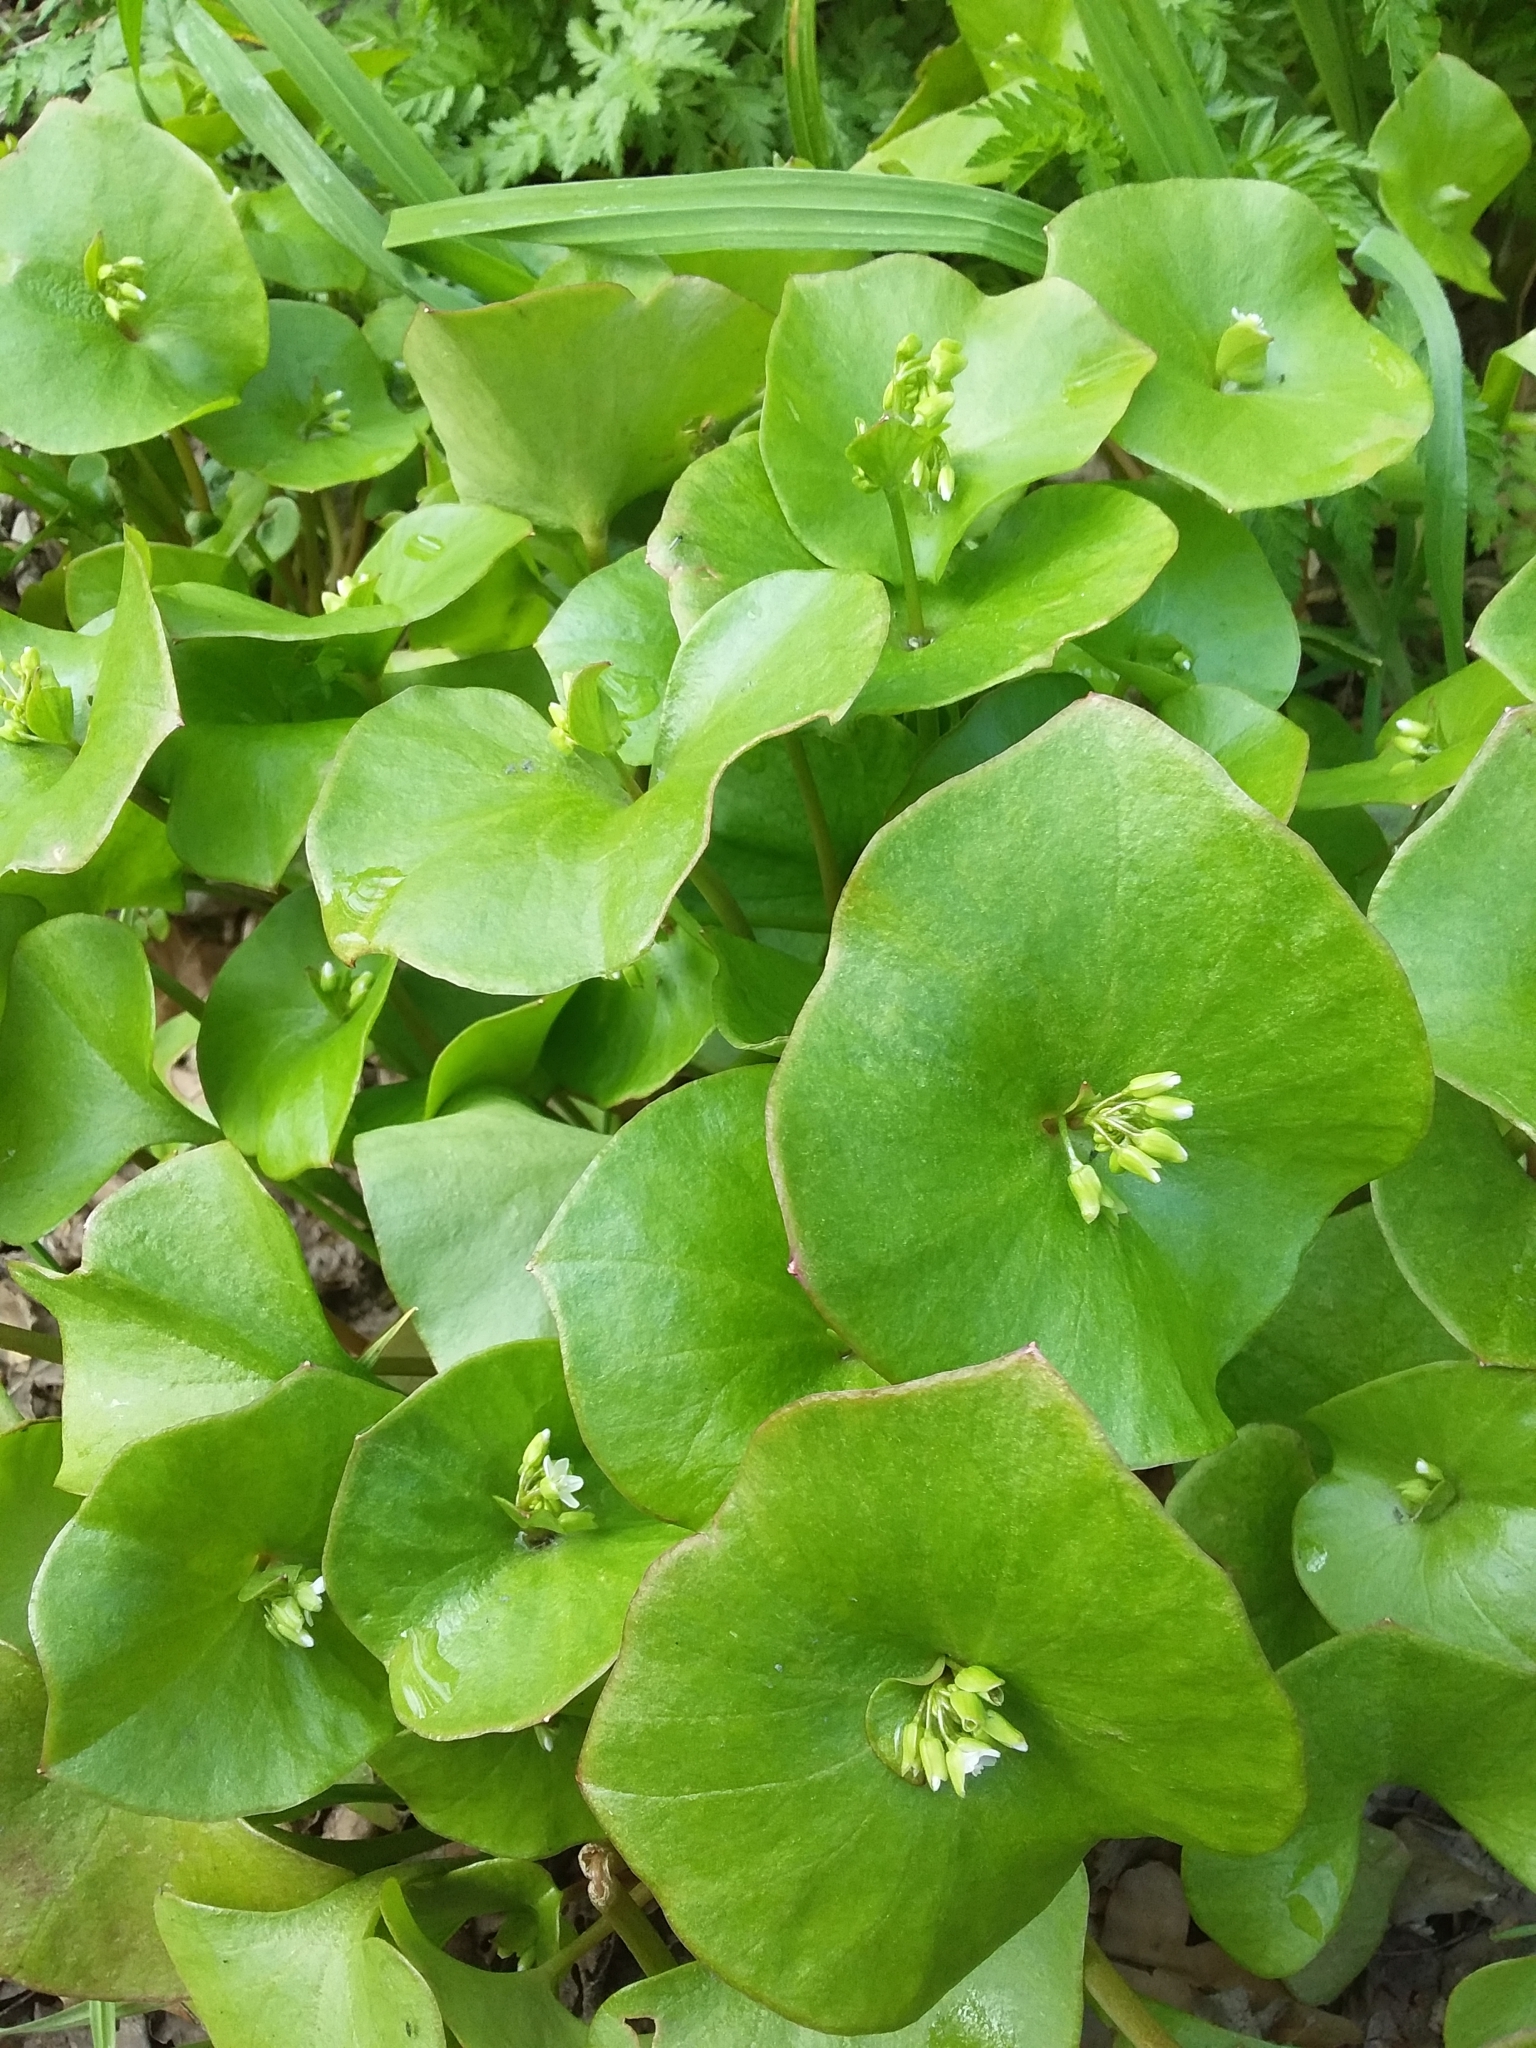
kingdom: Plantae
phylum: Tracheophyta
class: Magnoliopsida
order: Caryophyllales
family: Montiaceae
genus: Claytonia
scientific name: Claytonia perfoliata
